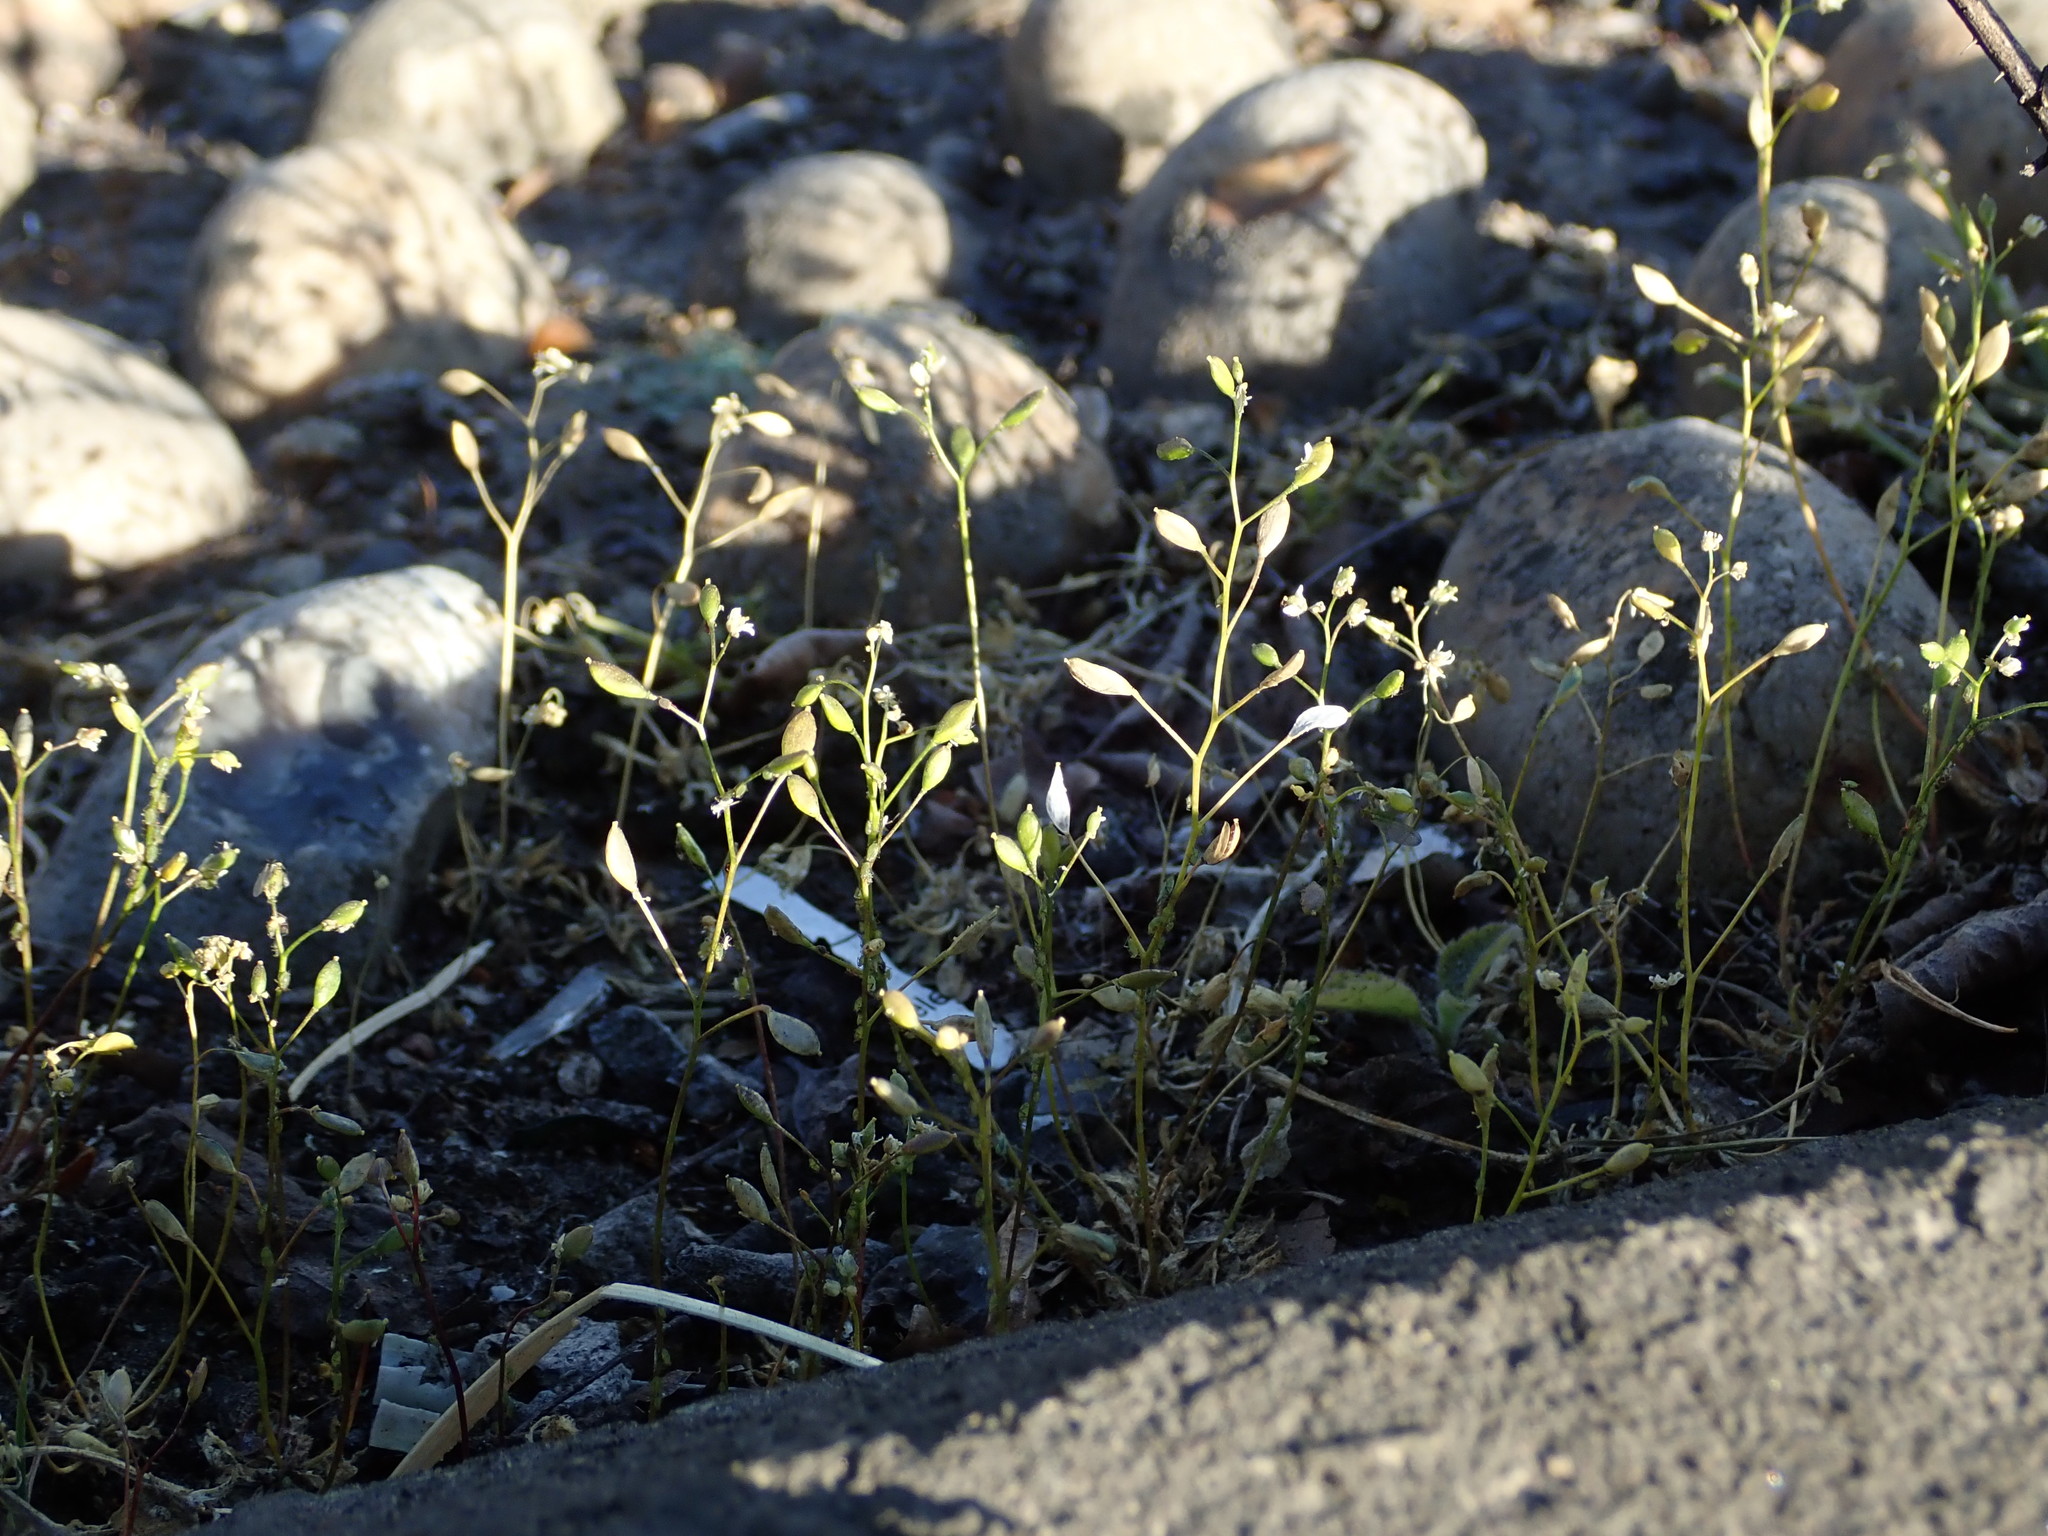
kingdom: Plantae
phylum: Tracheophyta
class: Magnoliopsida
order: Brassicales
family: Brassicaceae
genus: Draba
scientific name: Draba verna
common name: Spring draba
